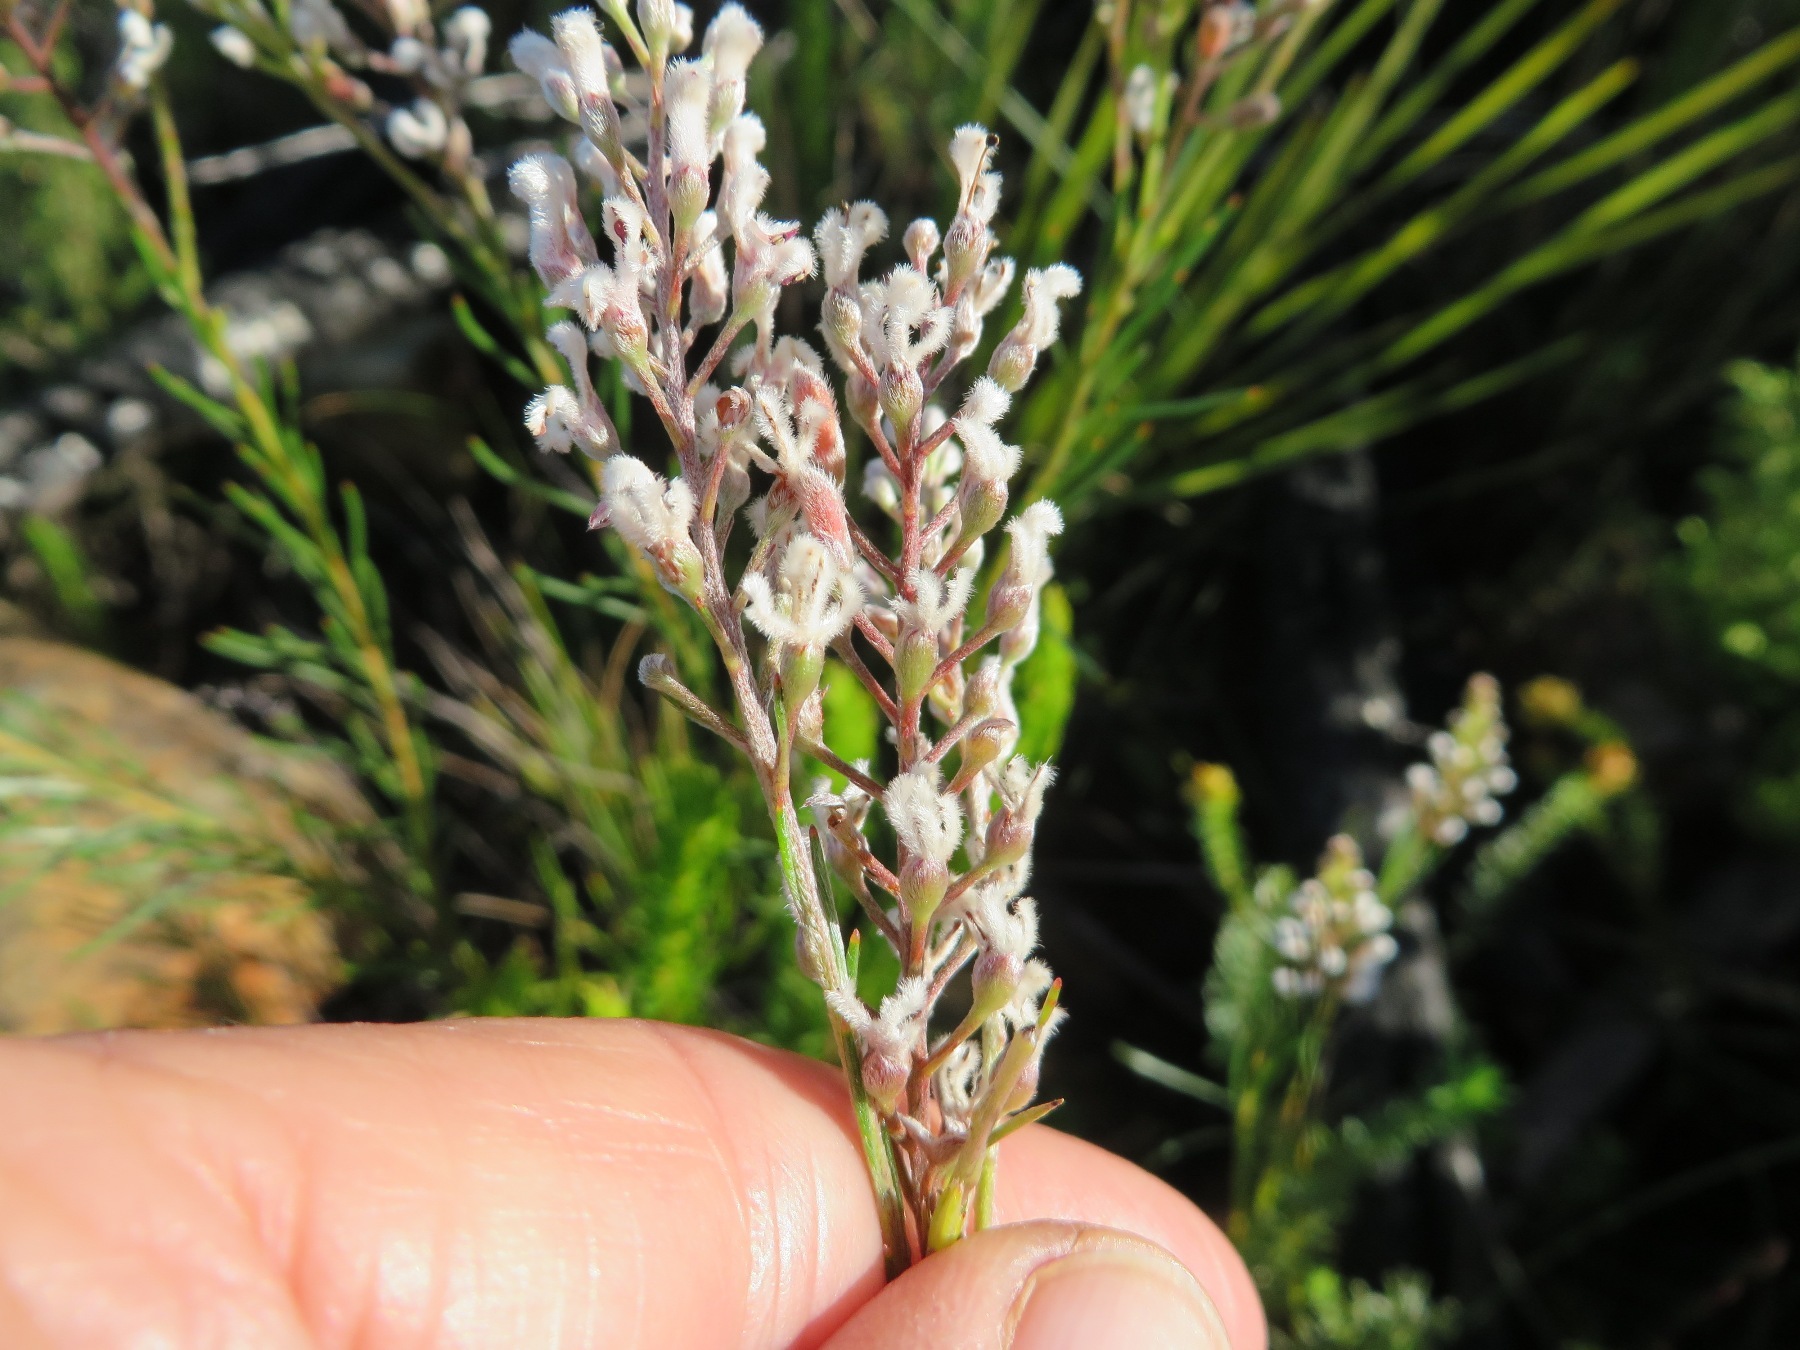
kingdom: Plantae
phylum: Tracheophyta
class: Magnoliopsida
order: Proteales
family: Proteaceae
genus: Spatalla
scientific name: Spatalla racemosa
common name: Lax-stalked spoon
